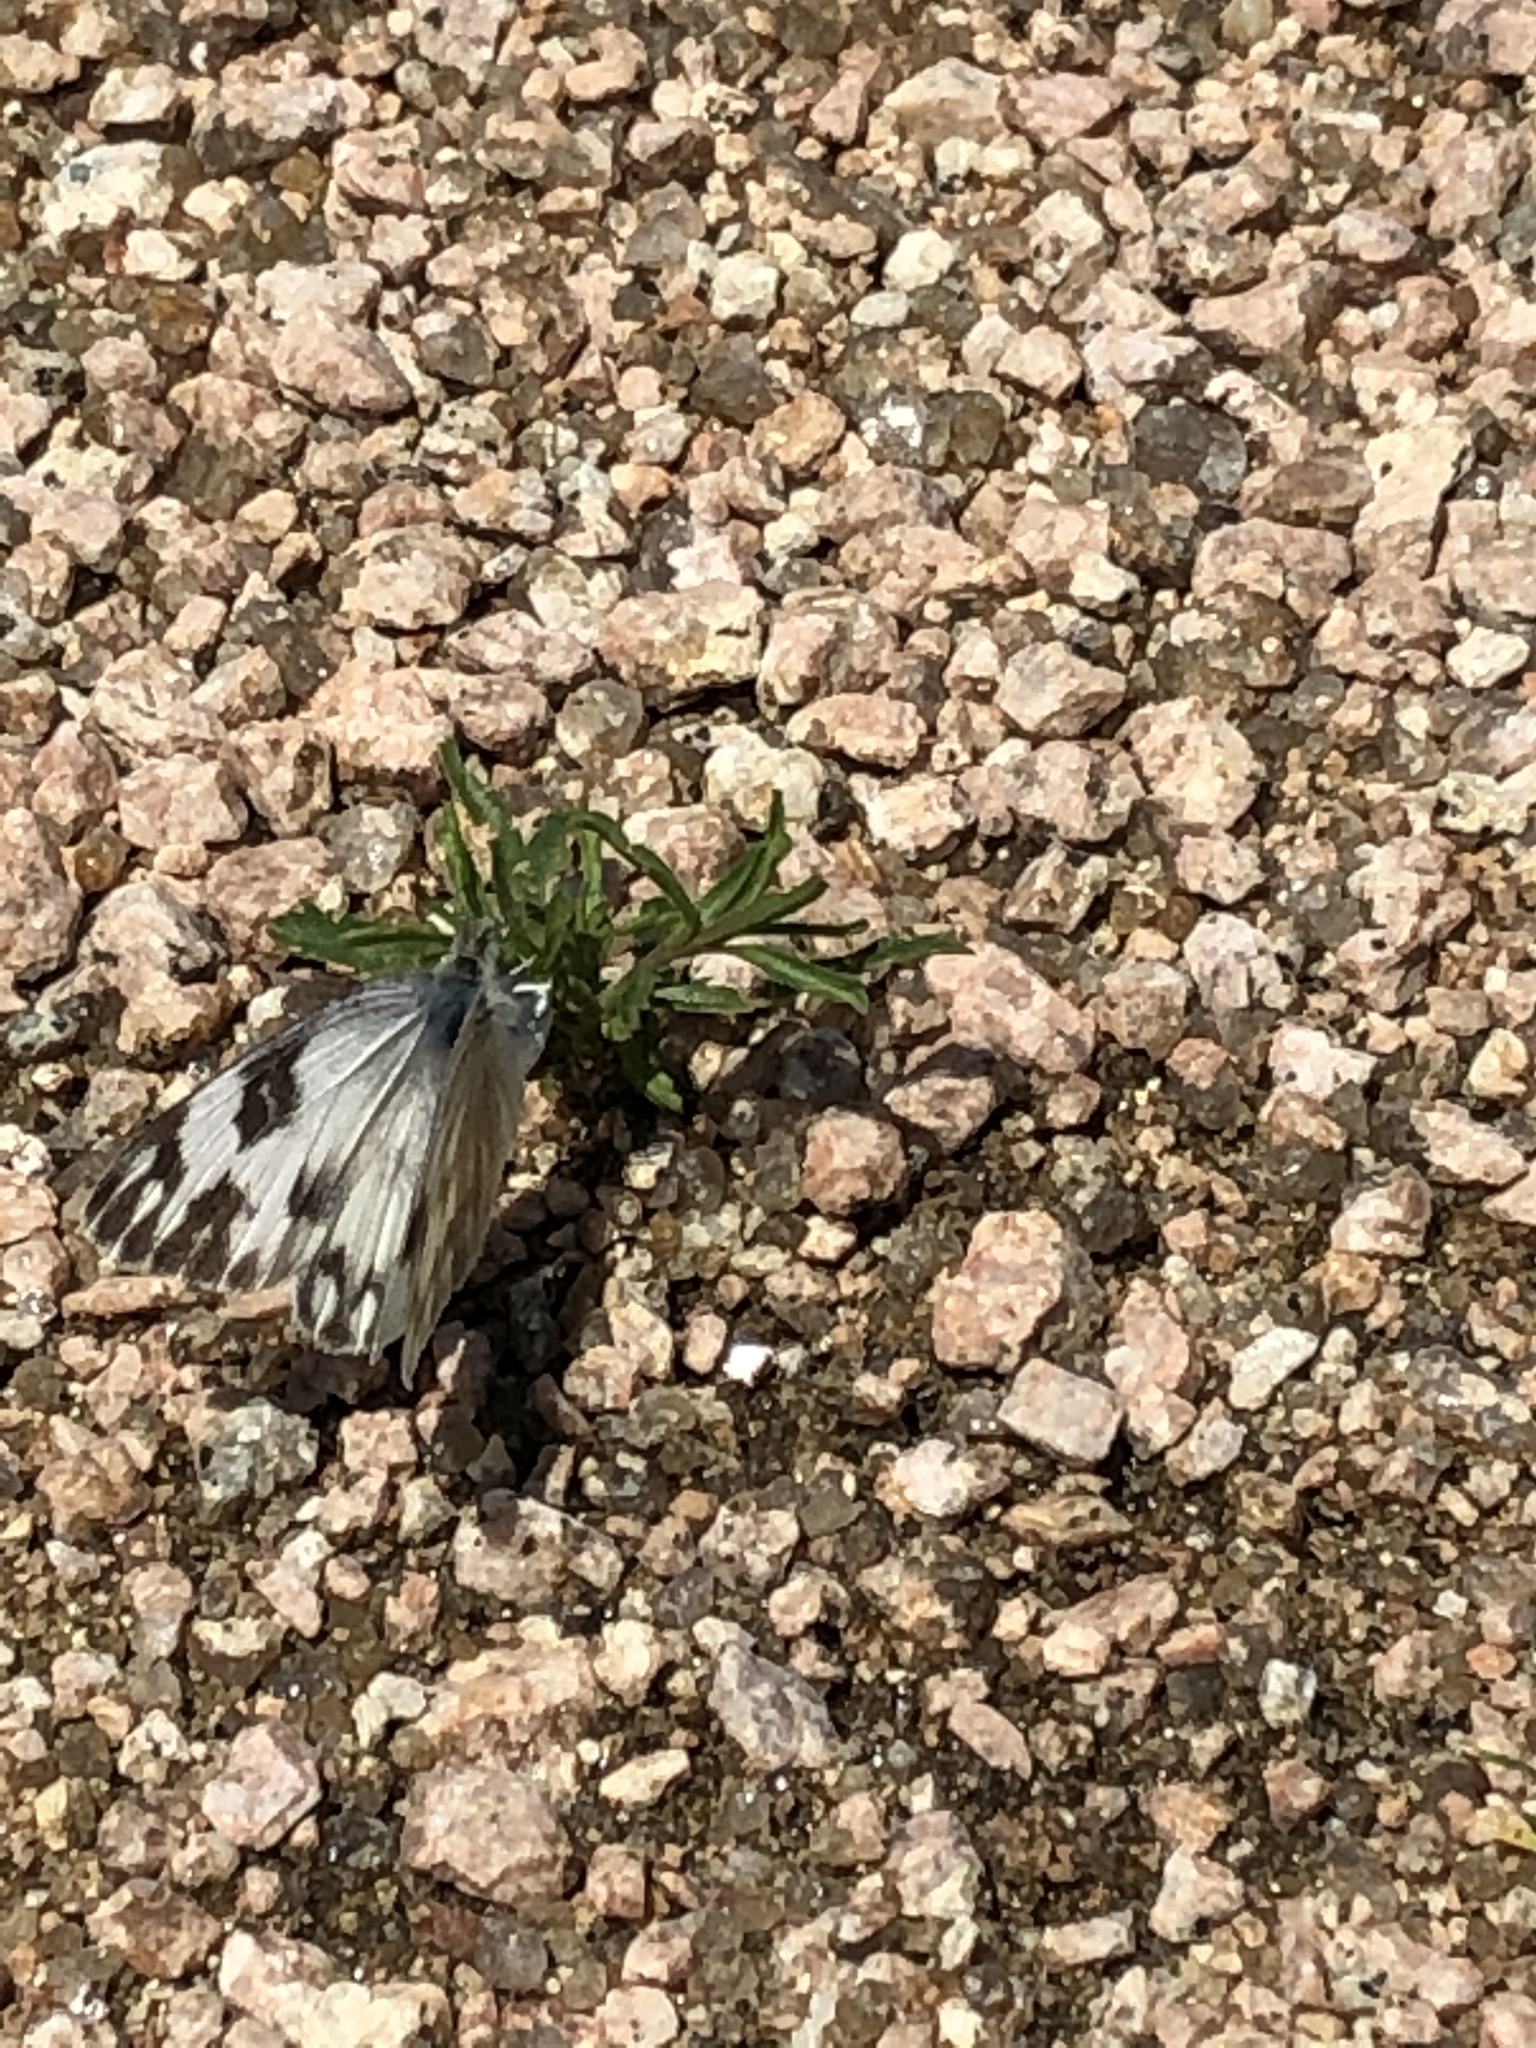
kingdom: Animalia
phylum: Arthropoda
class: Insecta
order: Lepidoptera
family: Pieridae
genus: Pontia
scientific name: Pontia protodice
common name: Checkered white
